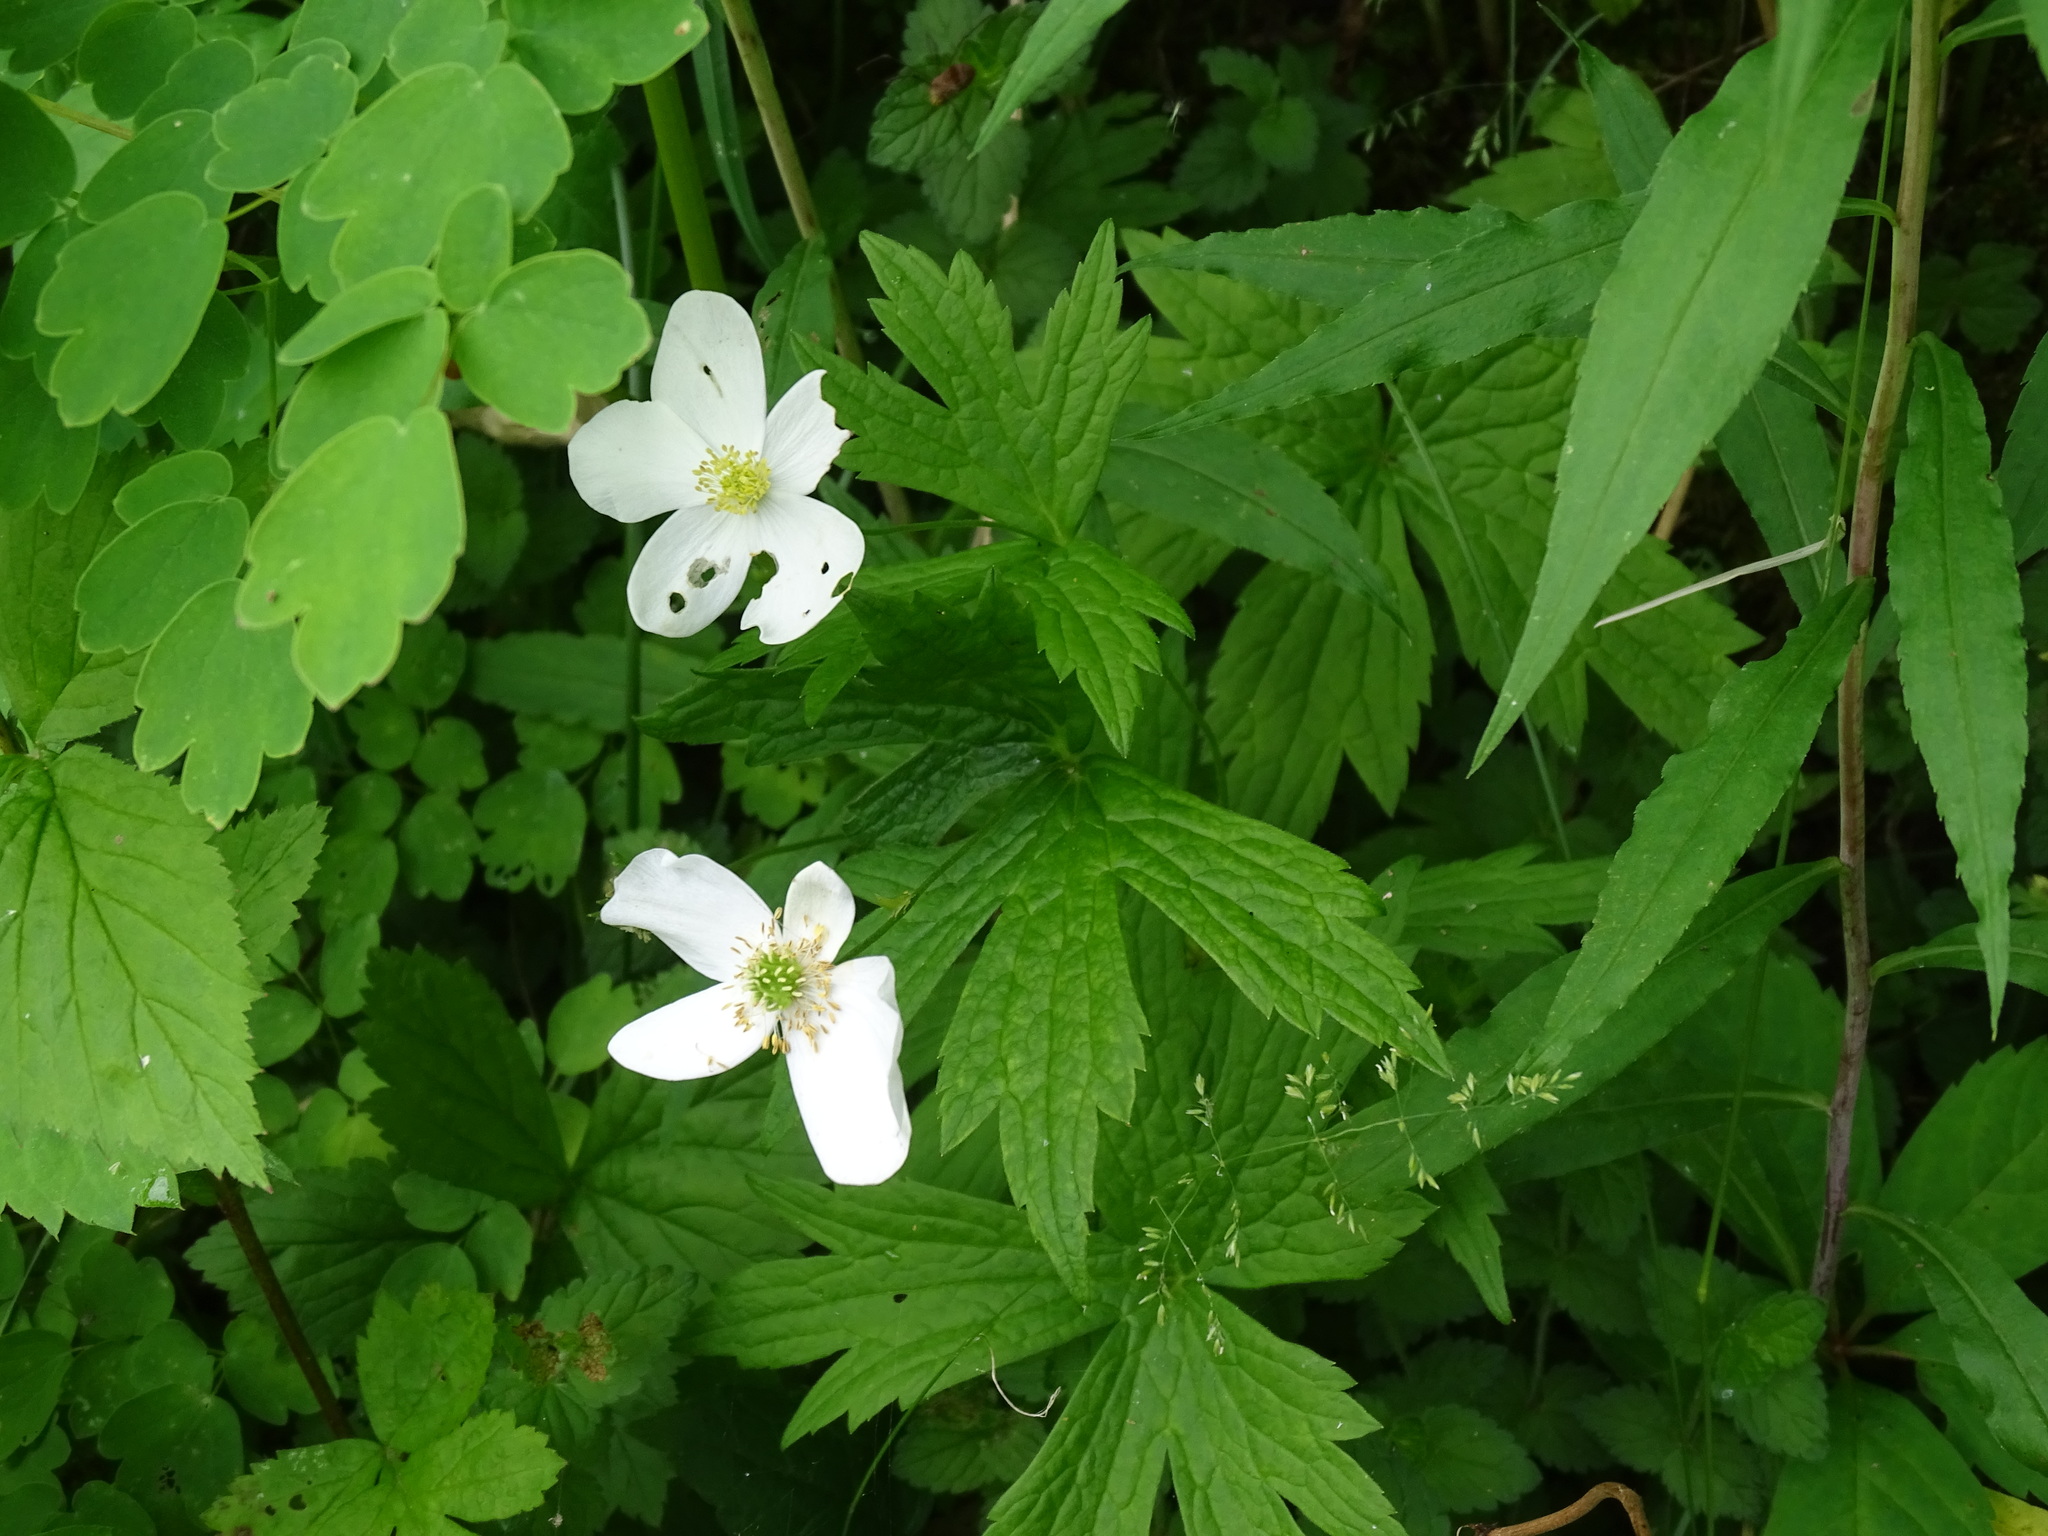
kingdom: Plantae
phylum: Tracheophyta
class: Magnoliopsida
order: Ranunculales
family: Ranunculaceae
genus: Anemonastrum
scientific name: Anemonastrum canadense
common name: Canada anemone
